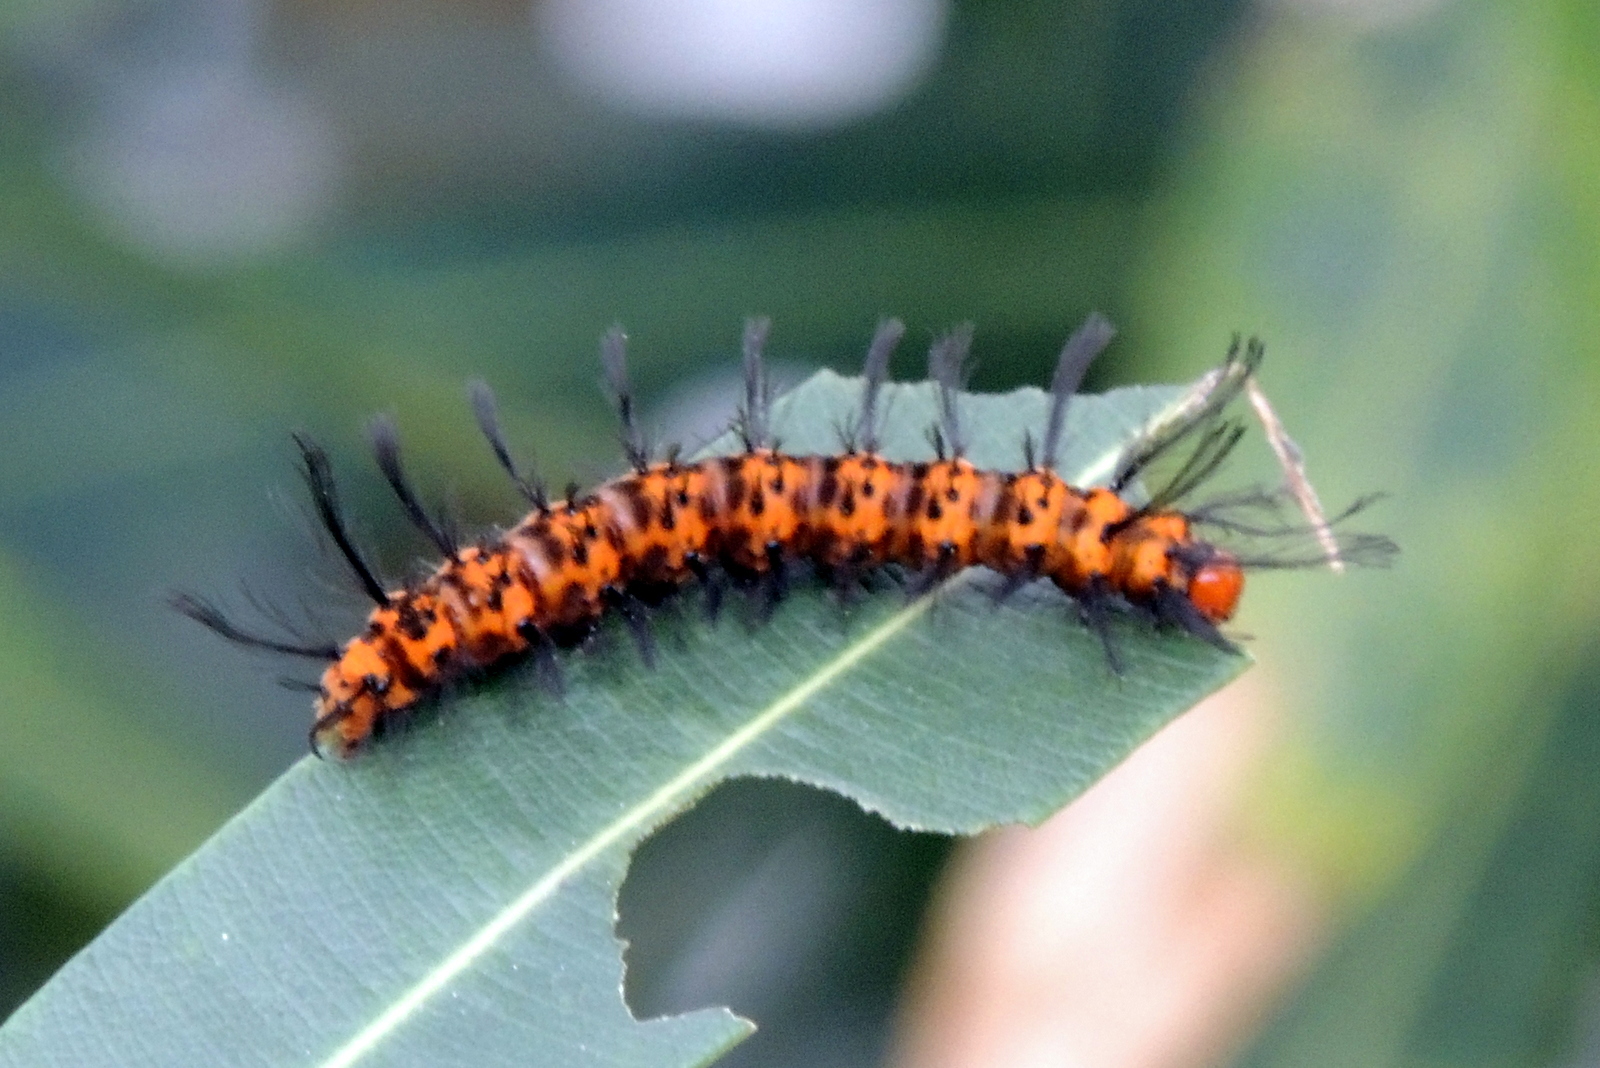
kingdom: Animalia
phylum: Arthropoda
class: Insecta
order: Lepidoptera
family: Erebidae
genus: Syntomeida
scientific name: Syntomeida epilais
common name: Polka-dot wasp moth
